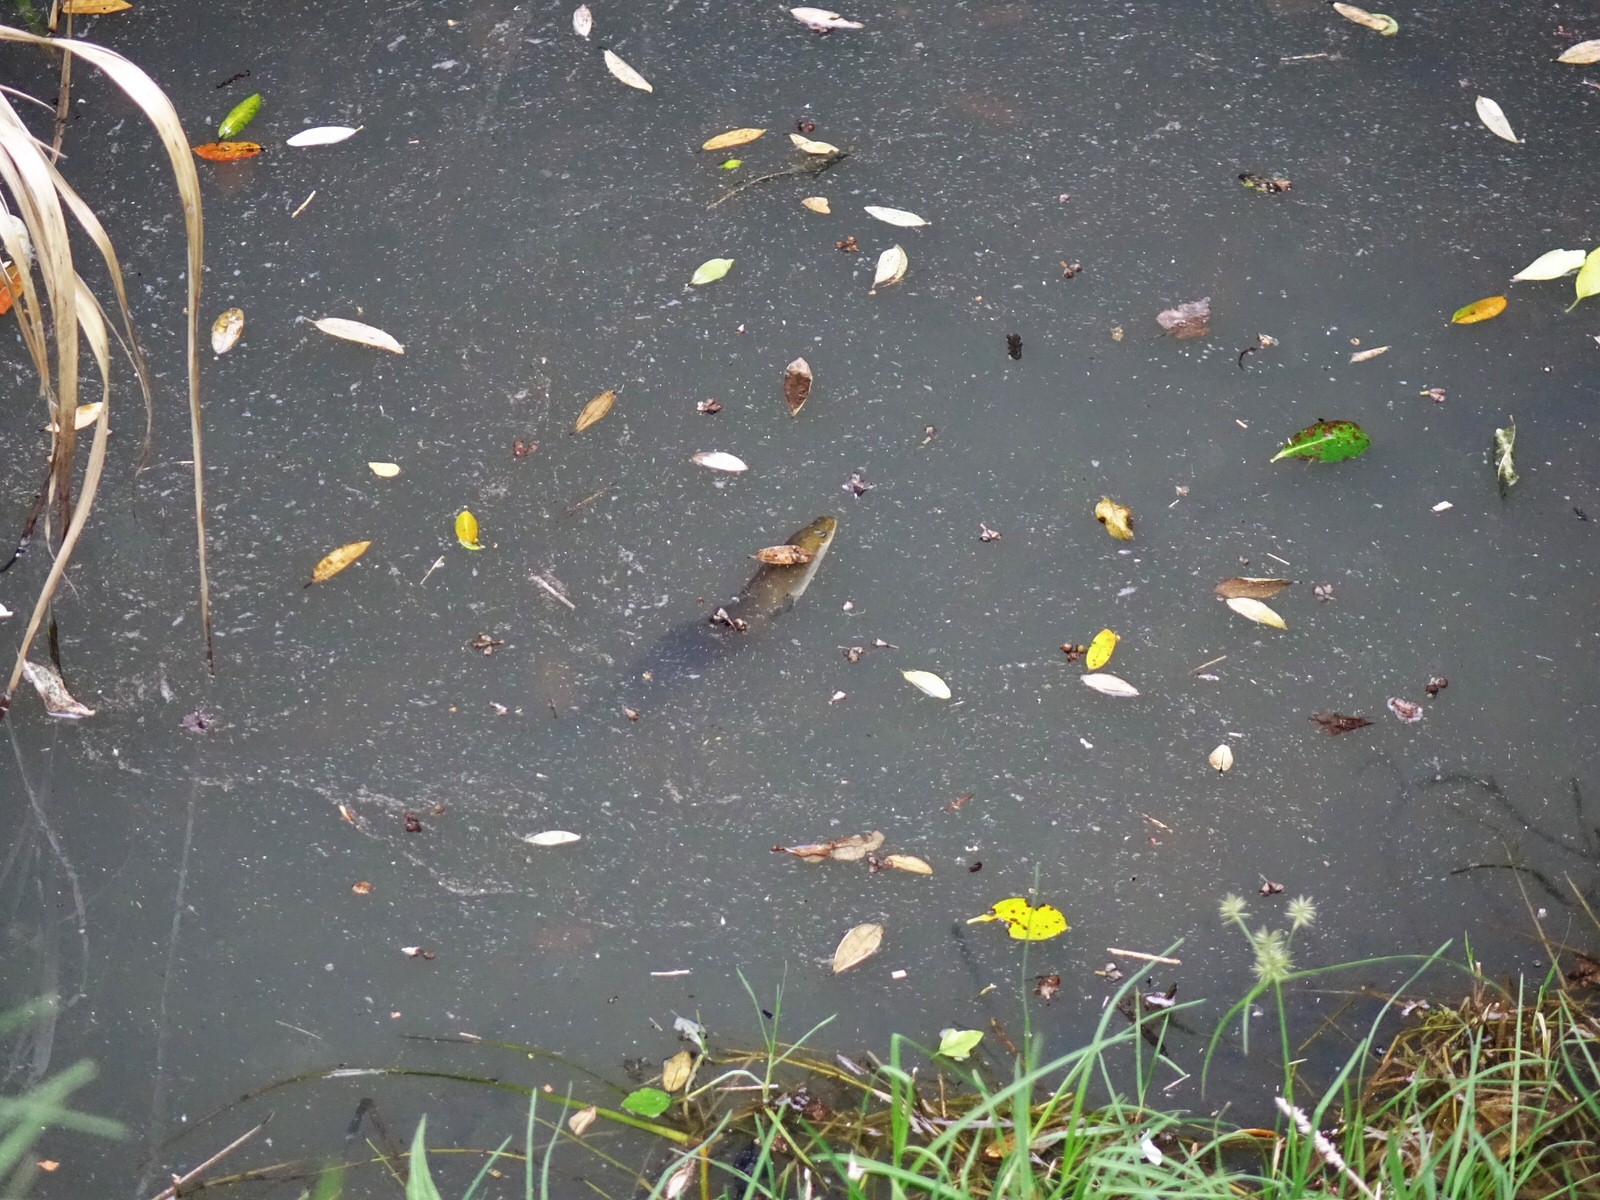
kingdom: Animalia
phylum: Chordata
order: Anguilliformes
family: Anguillidae
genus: Anguilla
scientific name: Anguilla australis
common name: Shortfin eel
